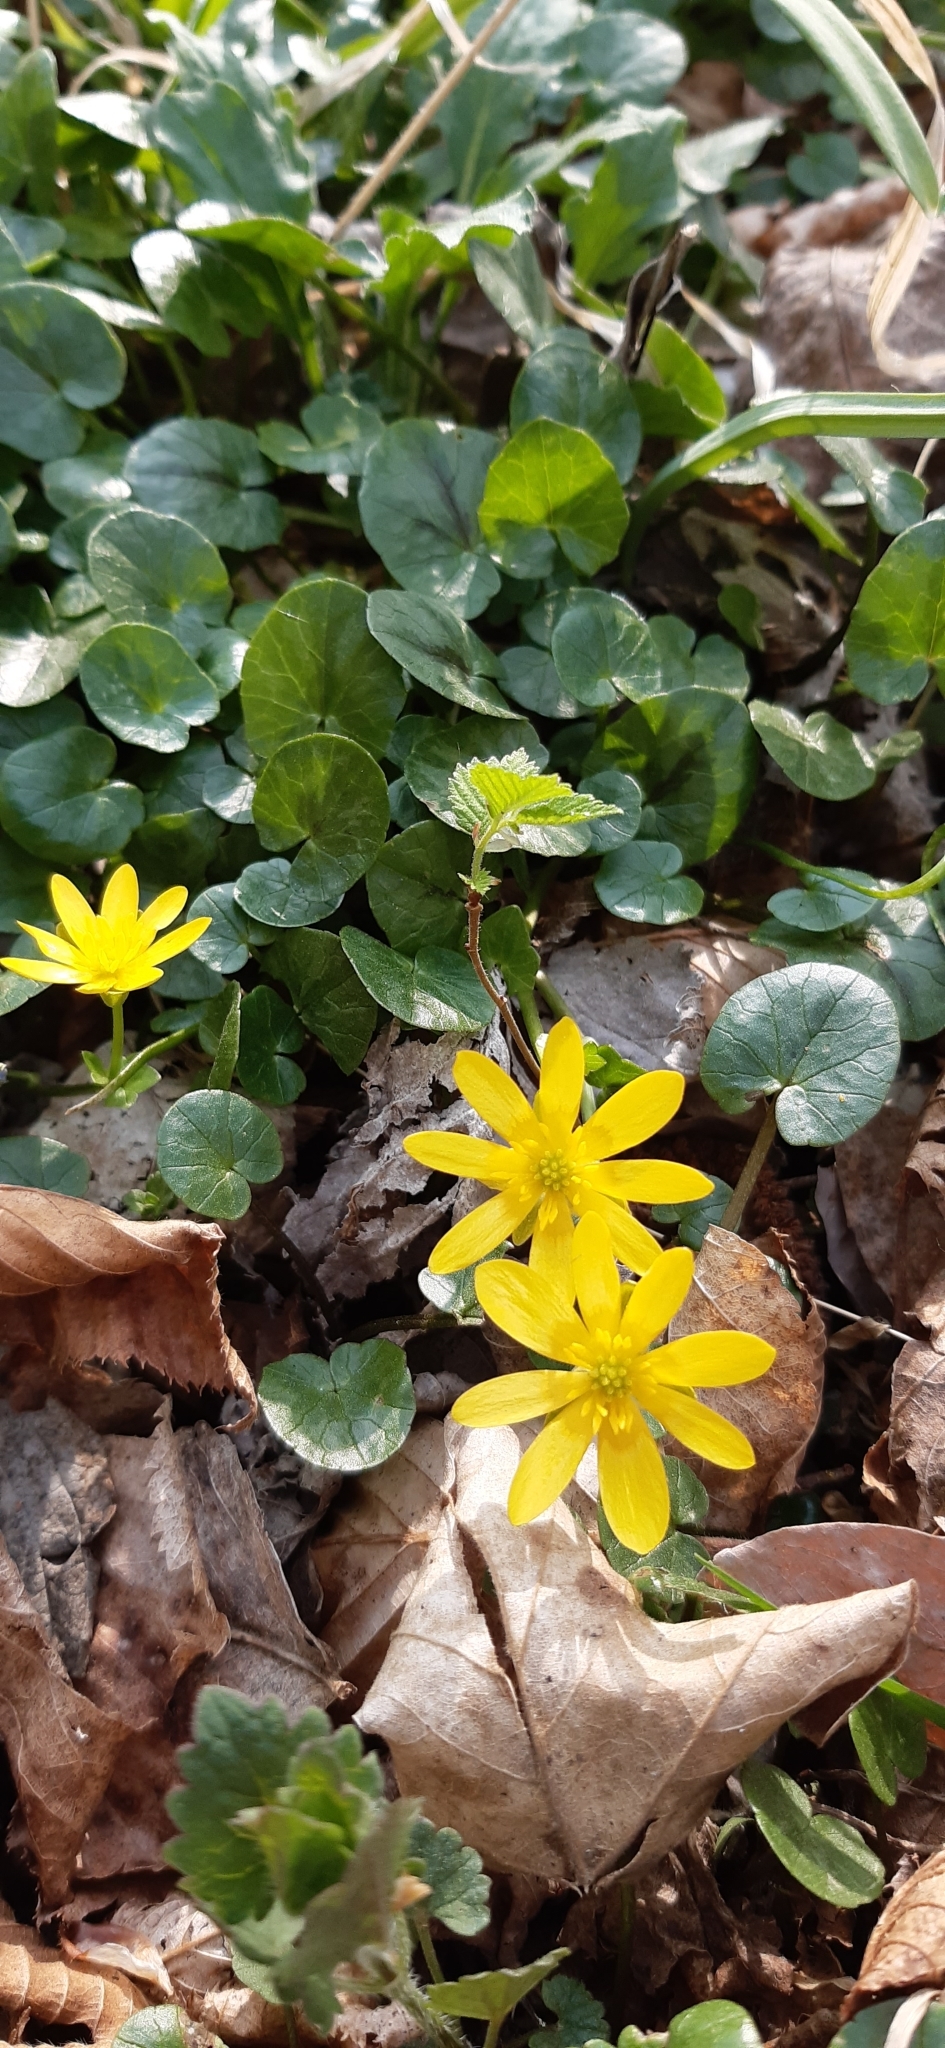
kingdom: Plantae
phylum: Tracheophyta
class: Magnoliopsida
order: Ranunculales
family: Ranunculaceae
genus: Ficaria
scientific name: Ficaria verna
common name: Lesser celandine
